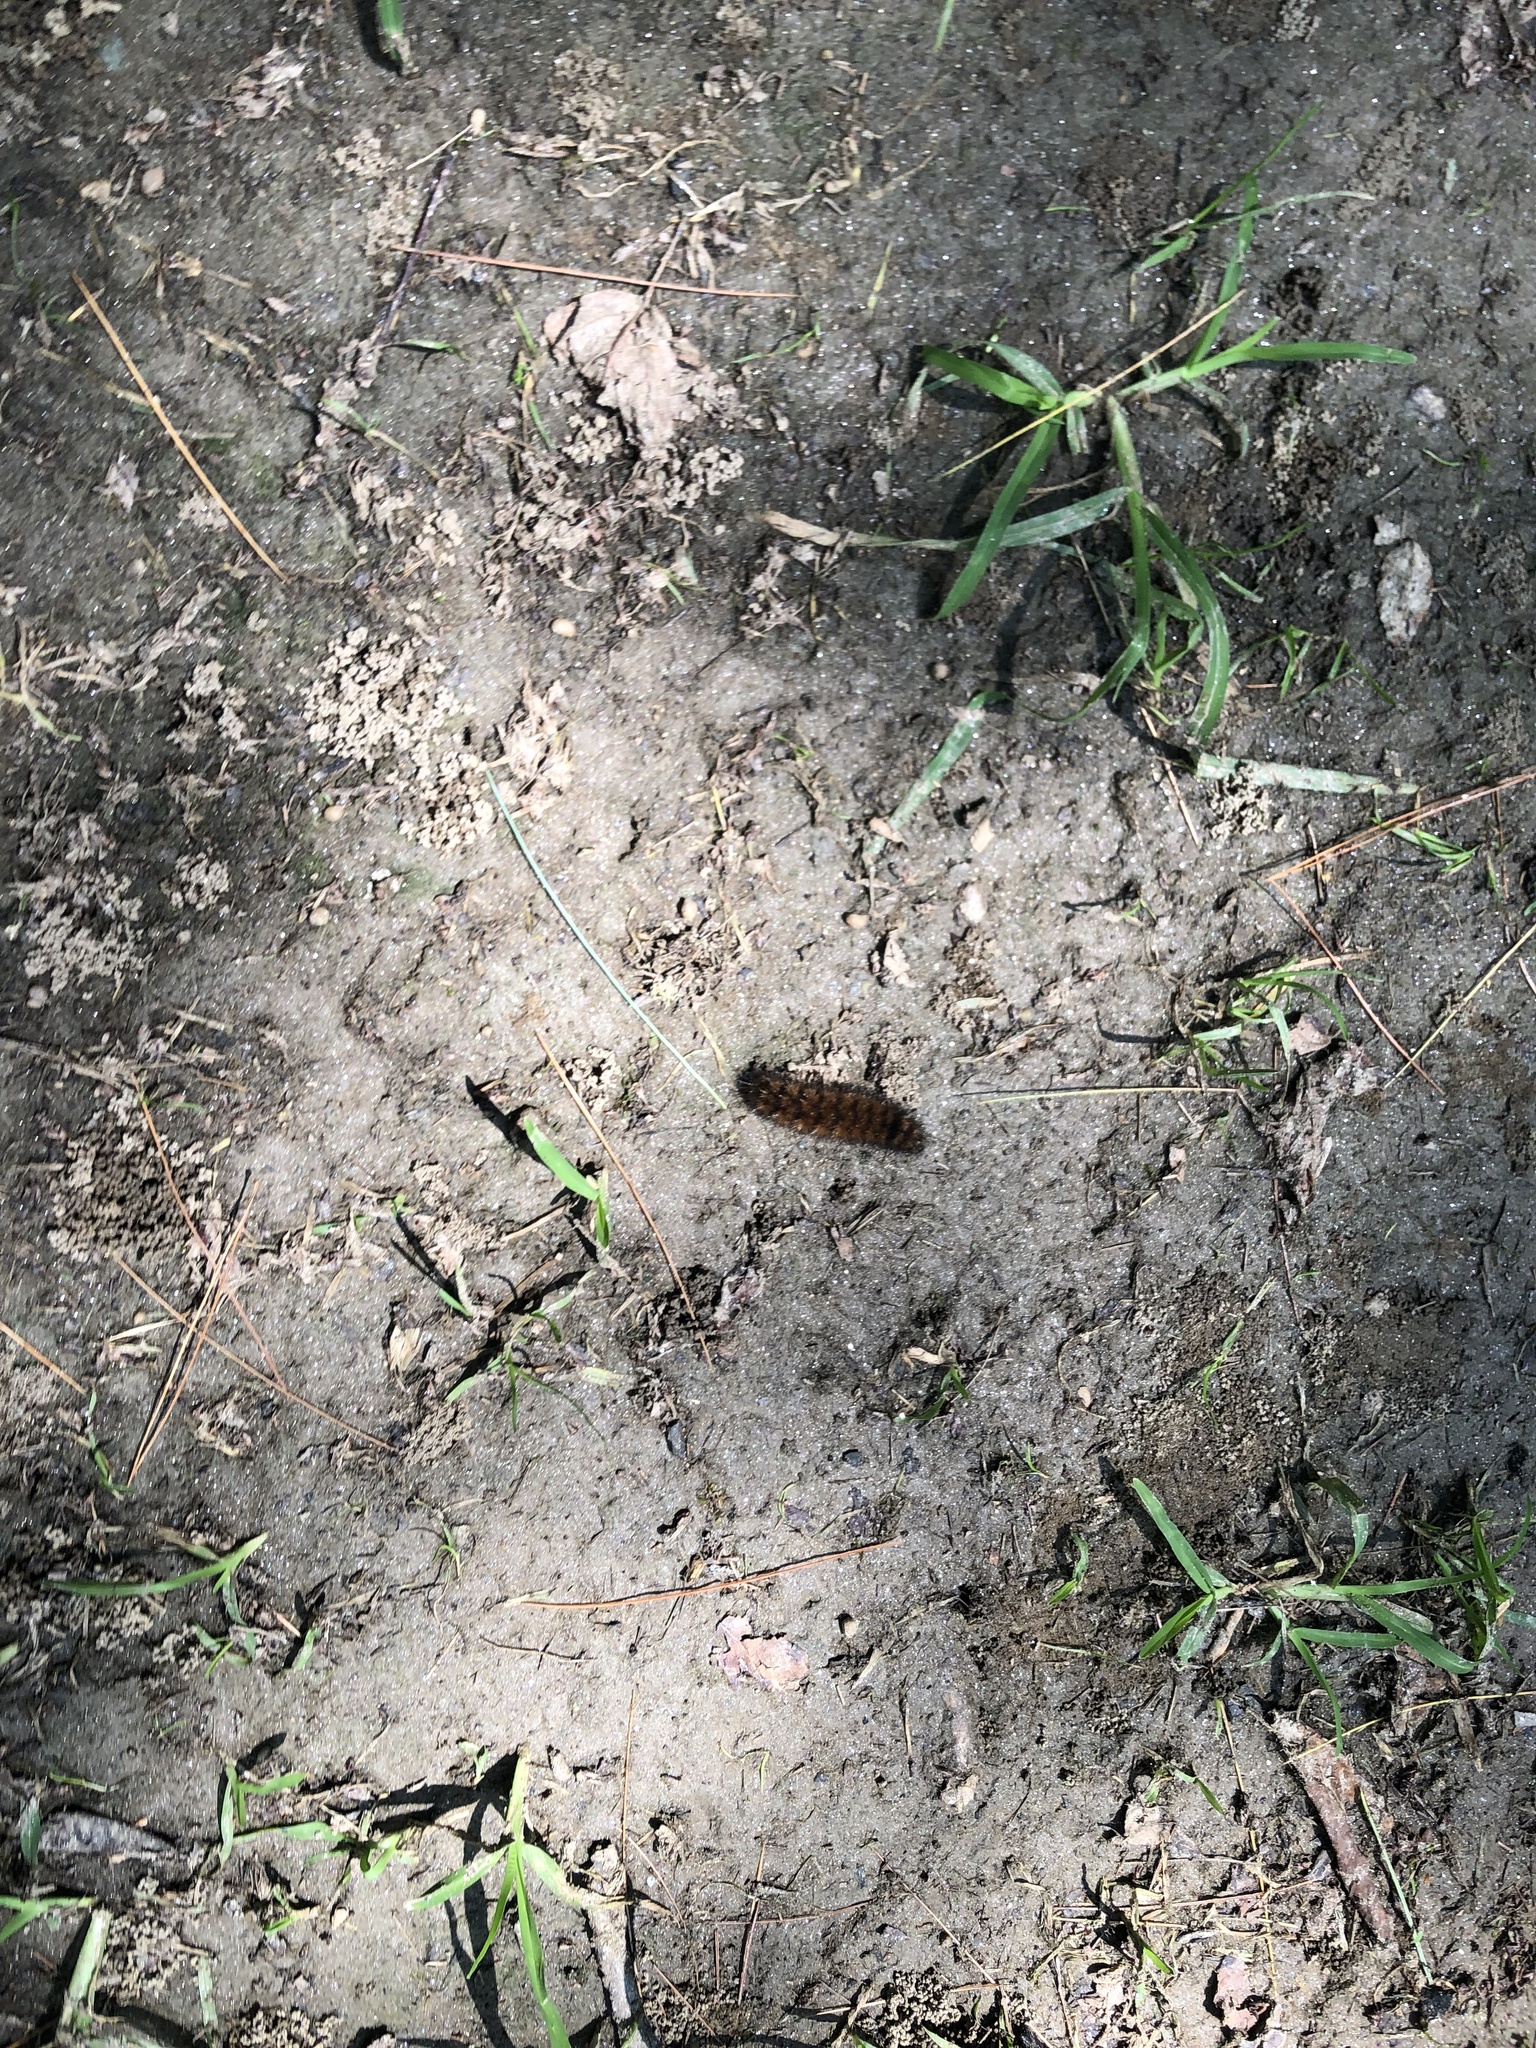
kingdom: Animalia
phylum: Arthropoda
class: Insecta
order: Lepidoptera
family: Erebidae
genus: Pyrrharctia
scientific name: Pyrrharctia isabella
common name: Isabella tiger moth
